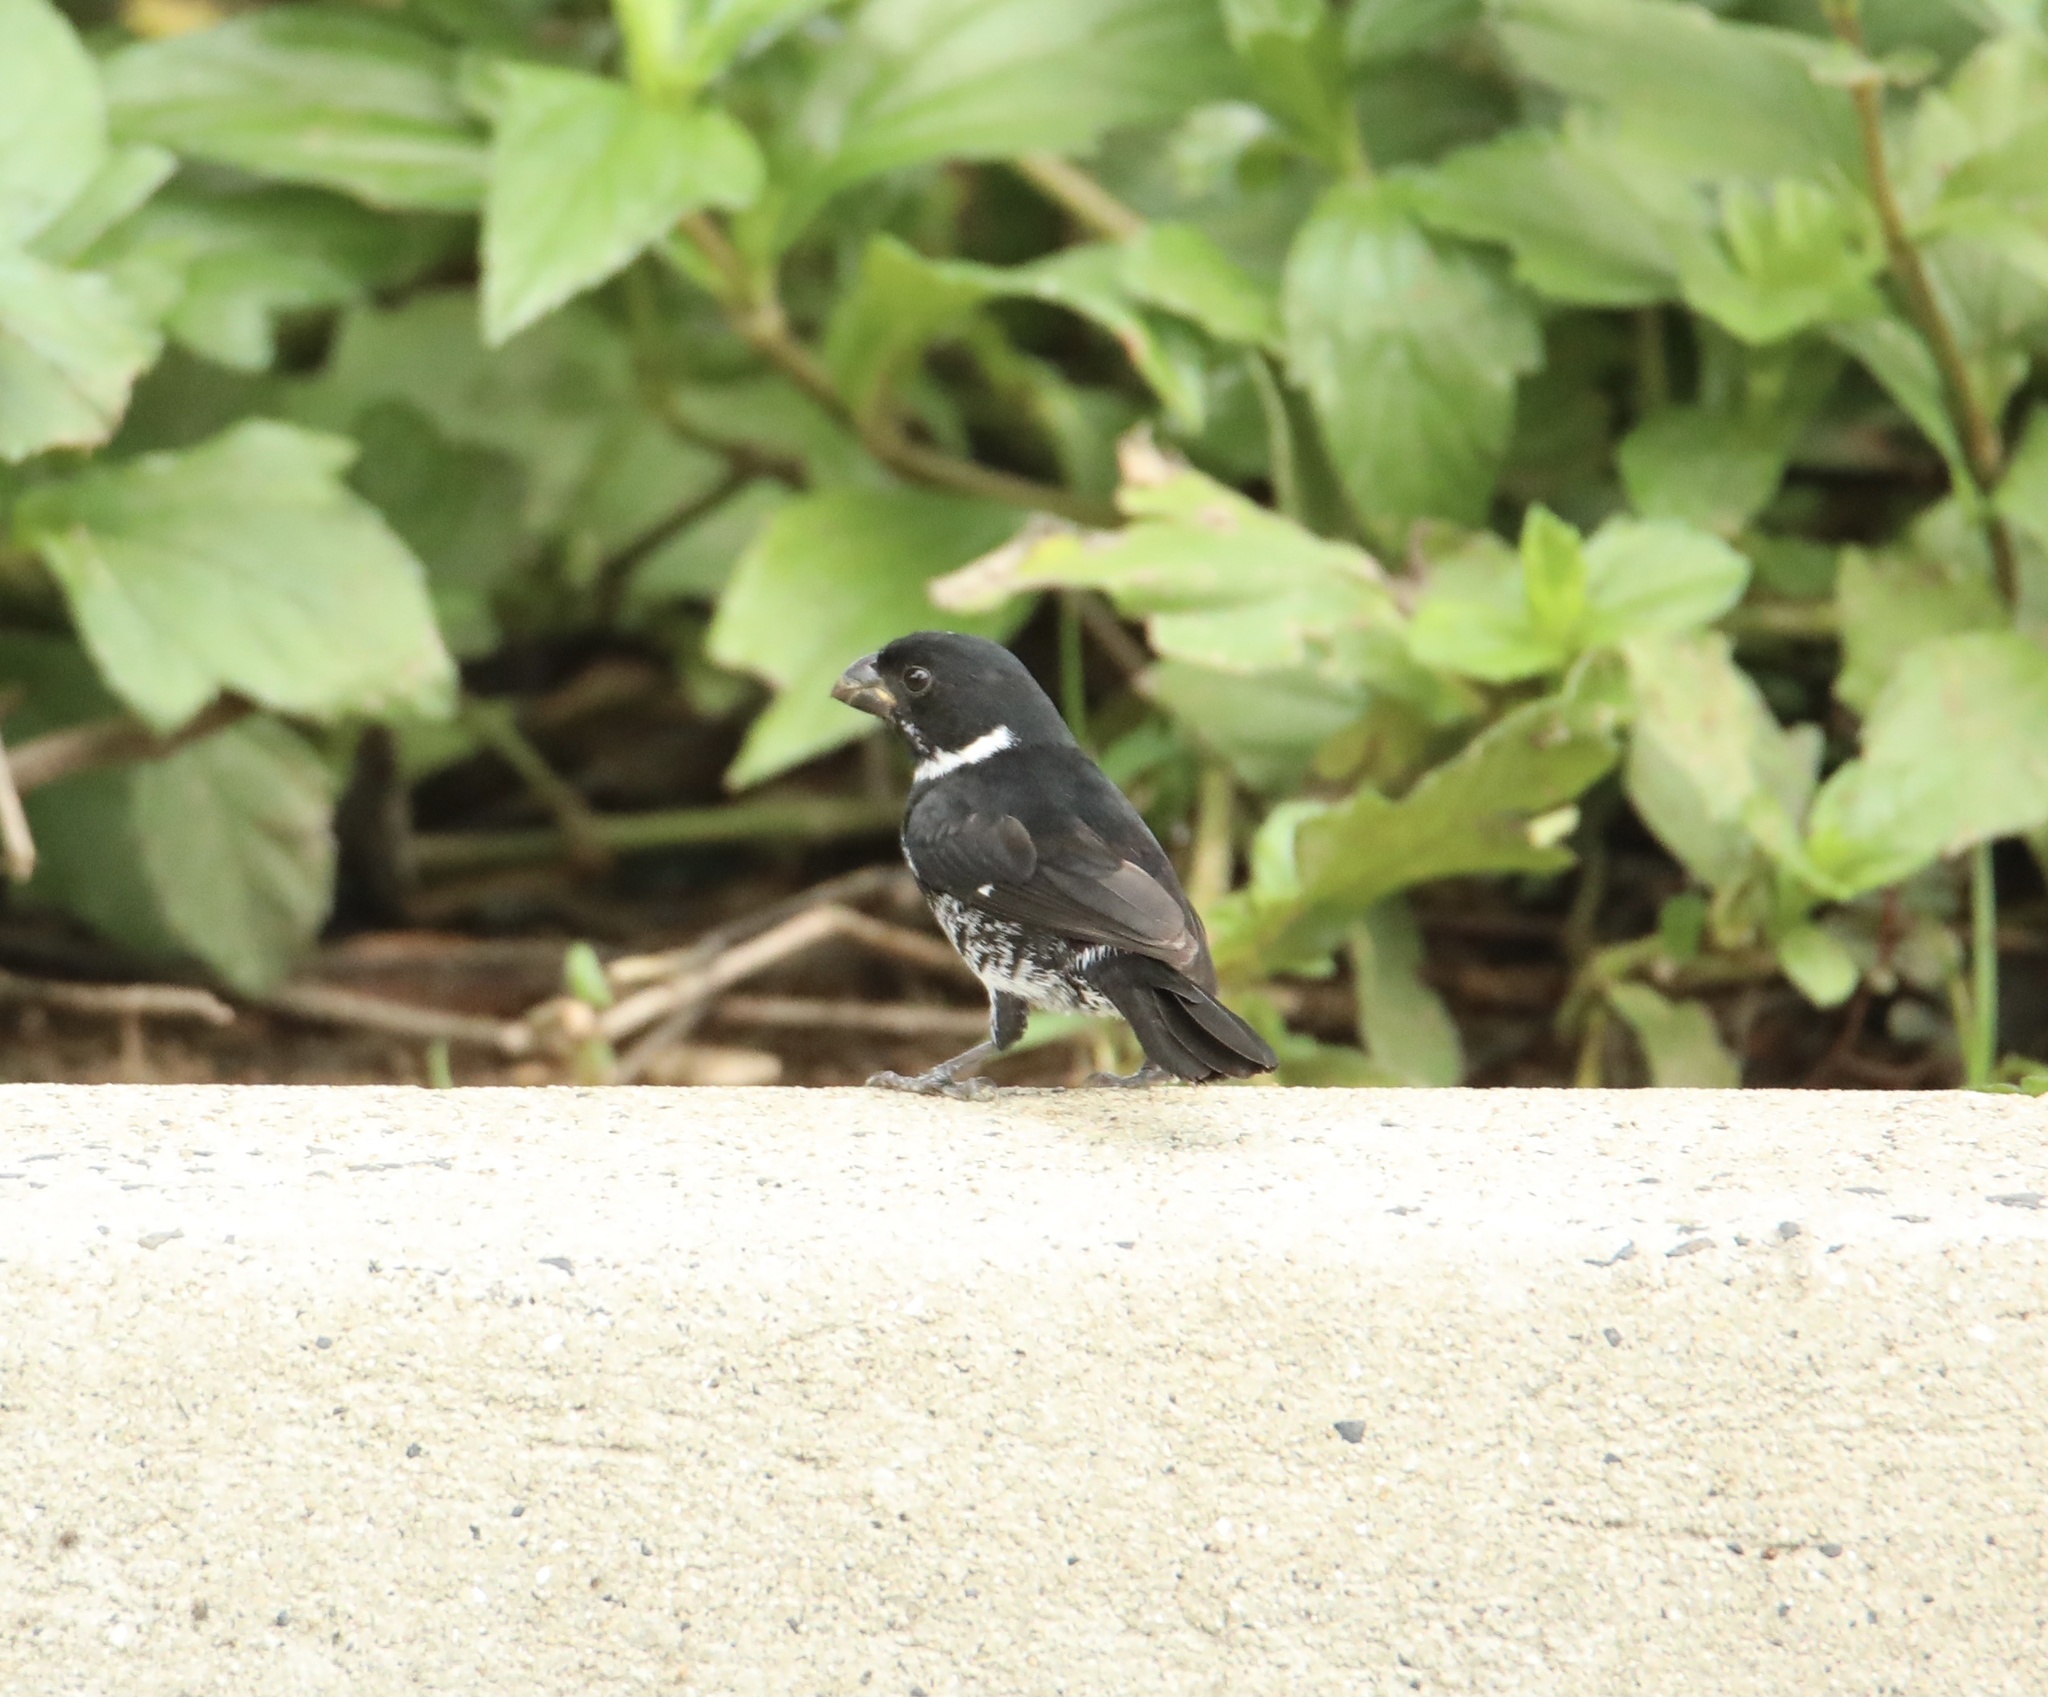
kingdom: Animalia
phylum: Chordata
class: Aves
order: Passeriformes
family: Thraupidae
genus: Sporophila
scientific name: Sporophila corvina
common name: Variable seedeater
